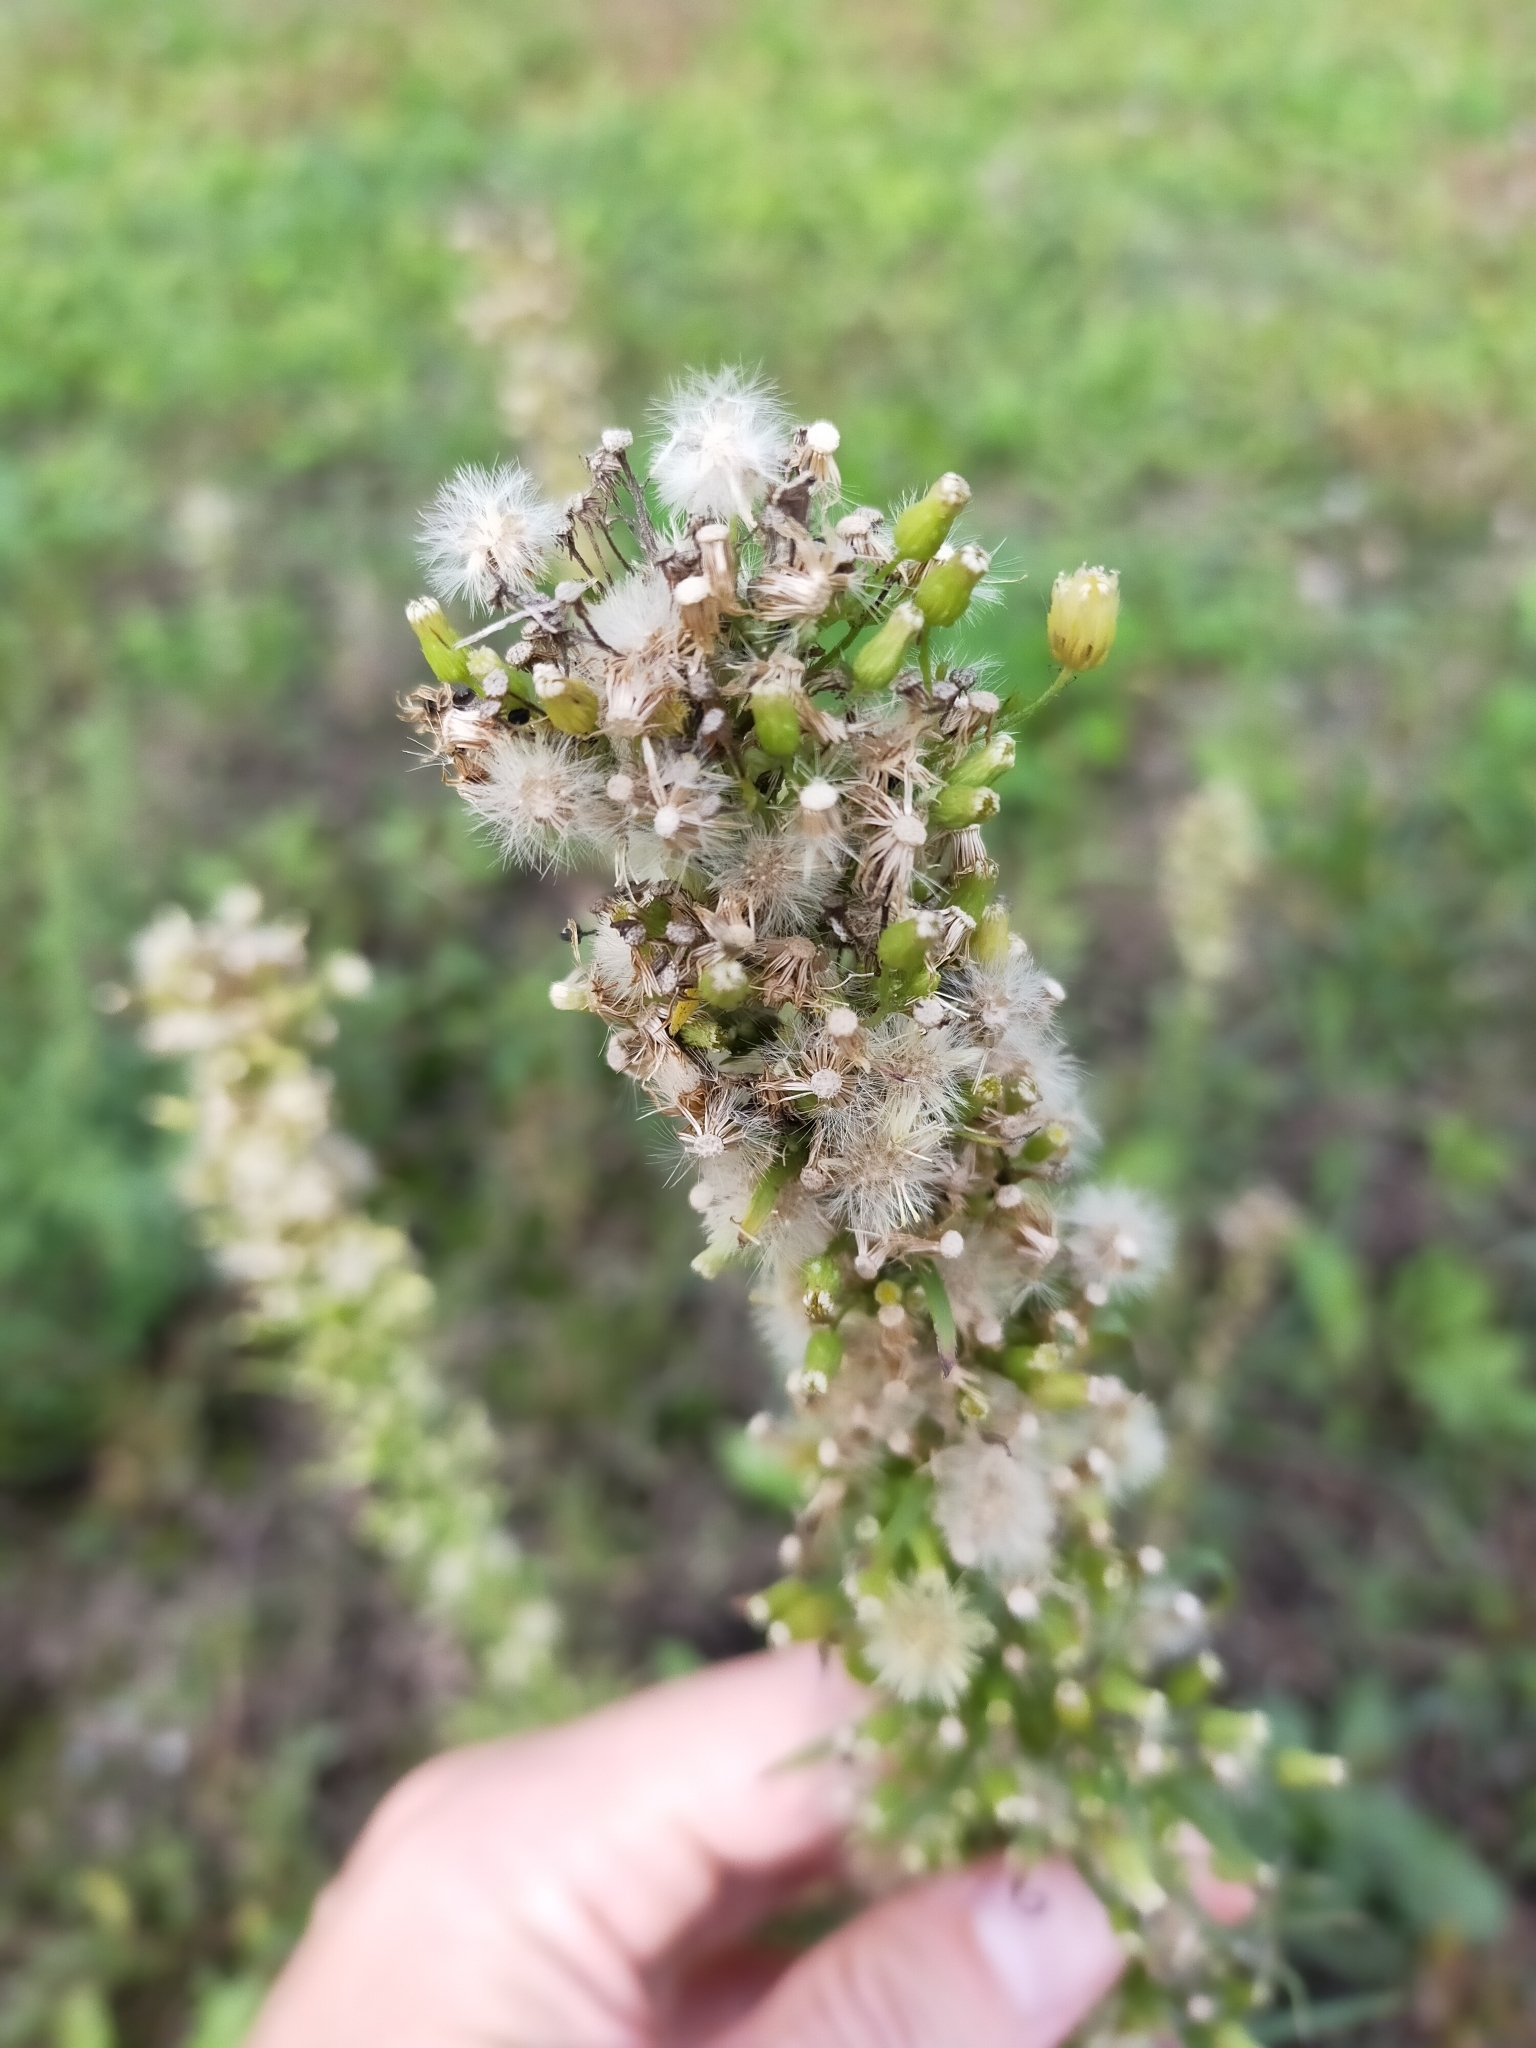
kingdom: Plantae
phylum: Tracheophyta
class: Magnoliopsida
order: Asterales
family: Asteraceae
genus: Erigeron
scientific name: Erigeron canadensis
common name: Canadian fleabane
